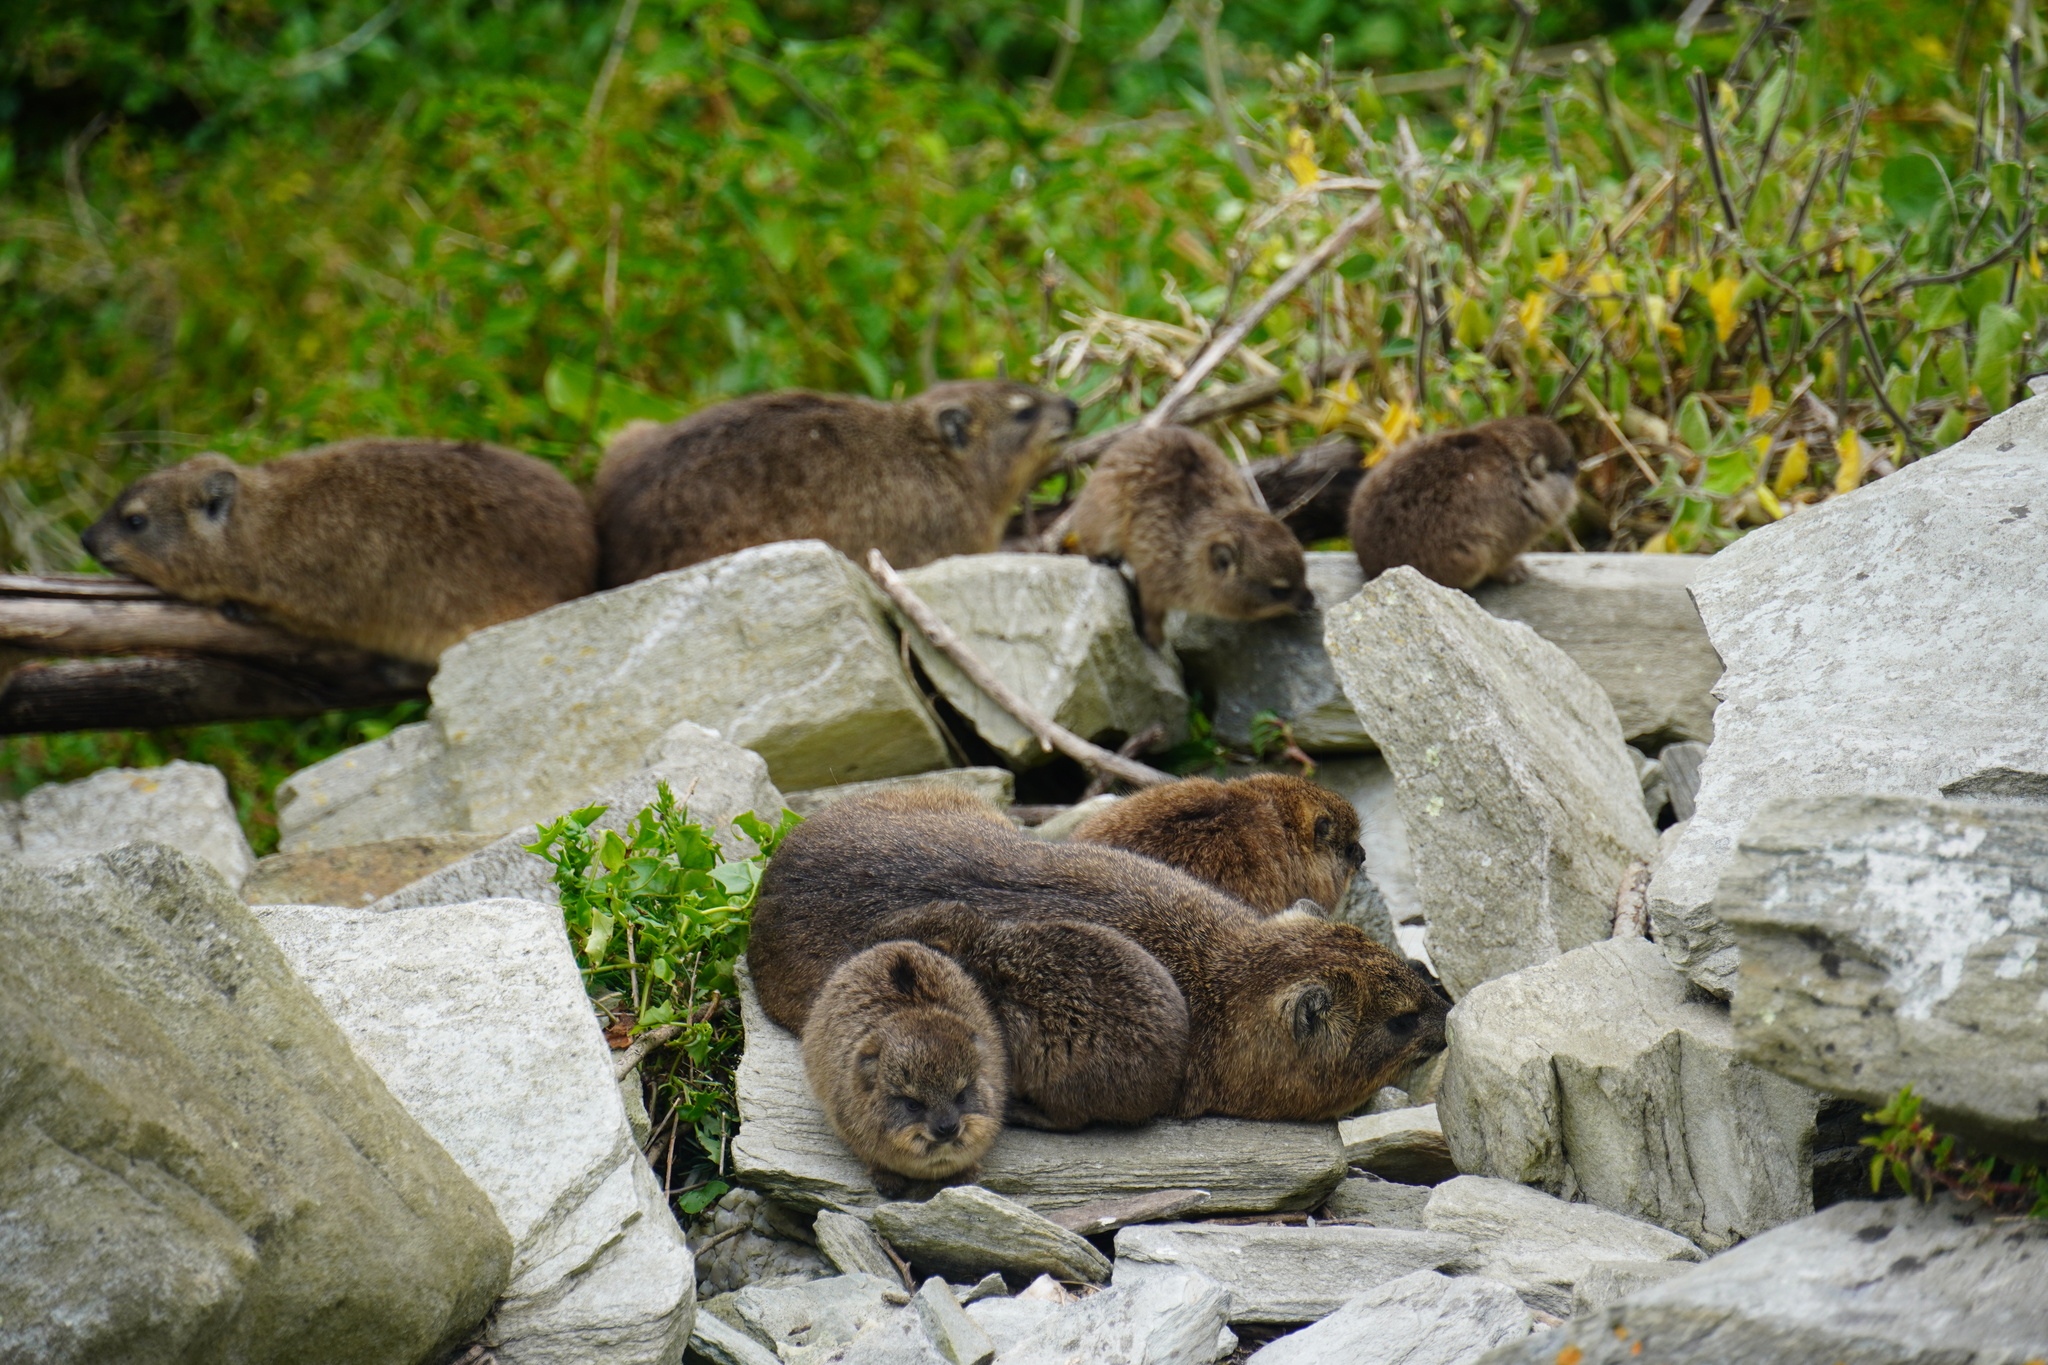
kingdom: Animalia
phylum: Chordata
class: Mammalia
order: Hyracoidea
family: Procaviidae
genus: Procavia
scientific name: Procavia capensis
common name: Rock hyrax
